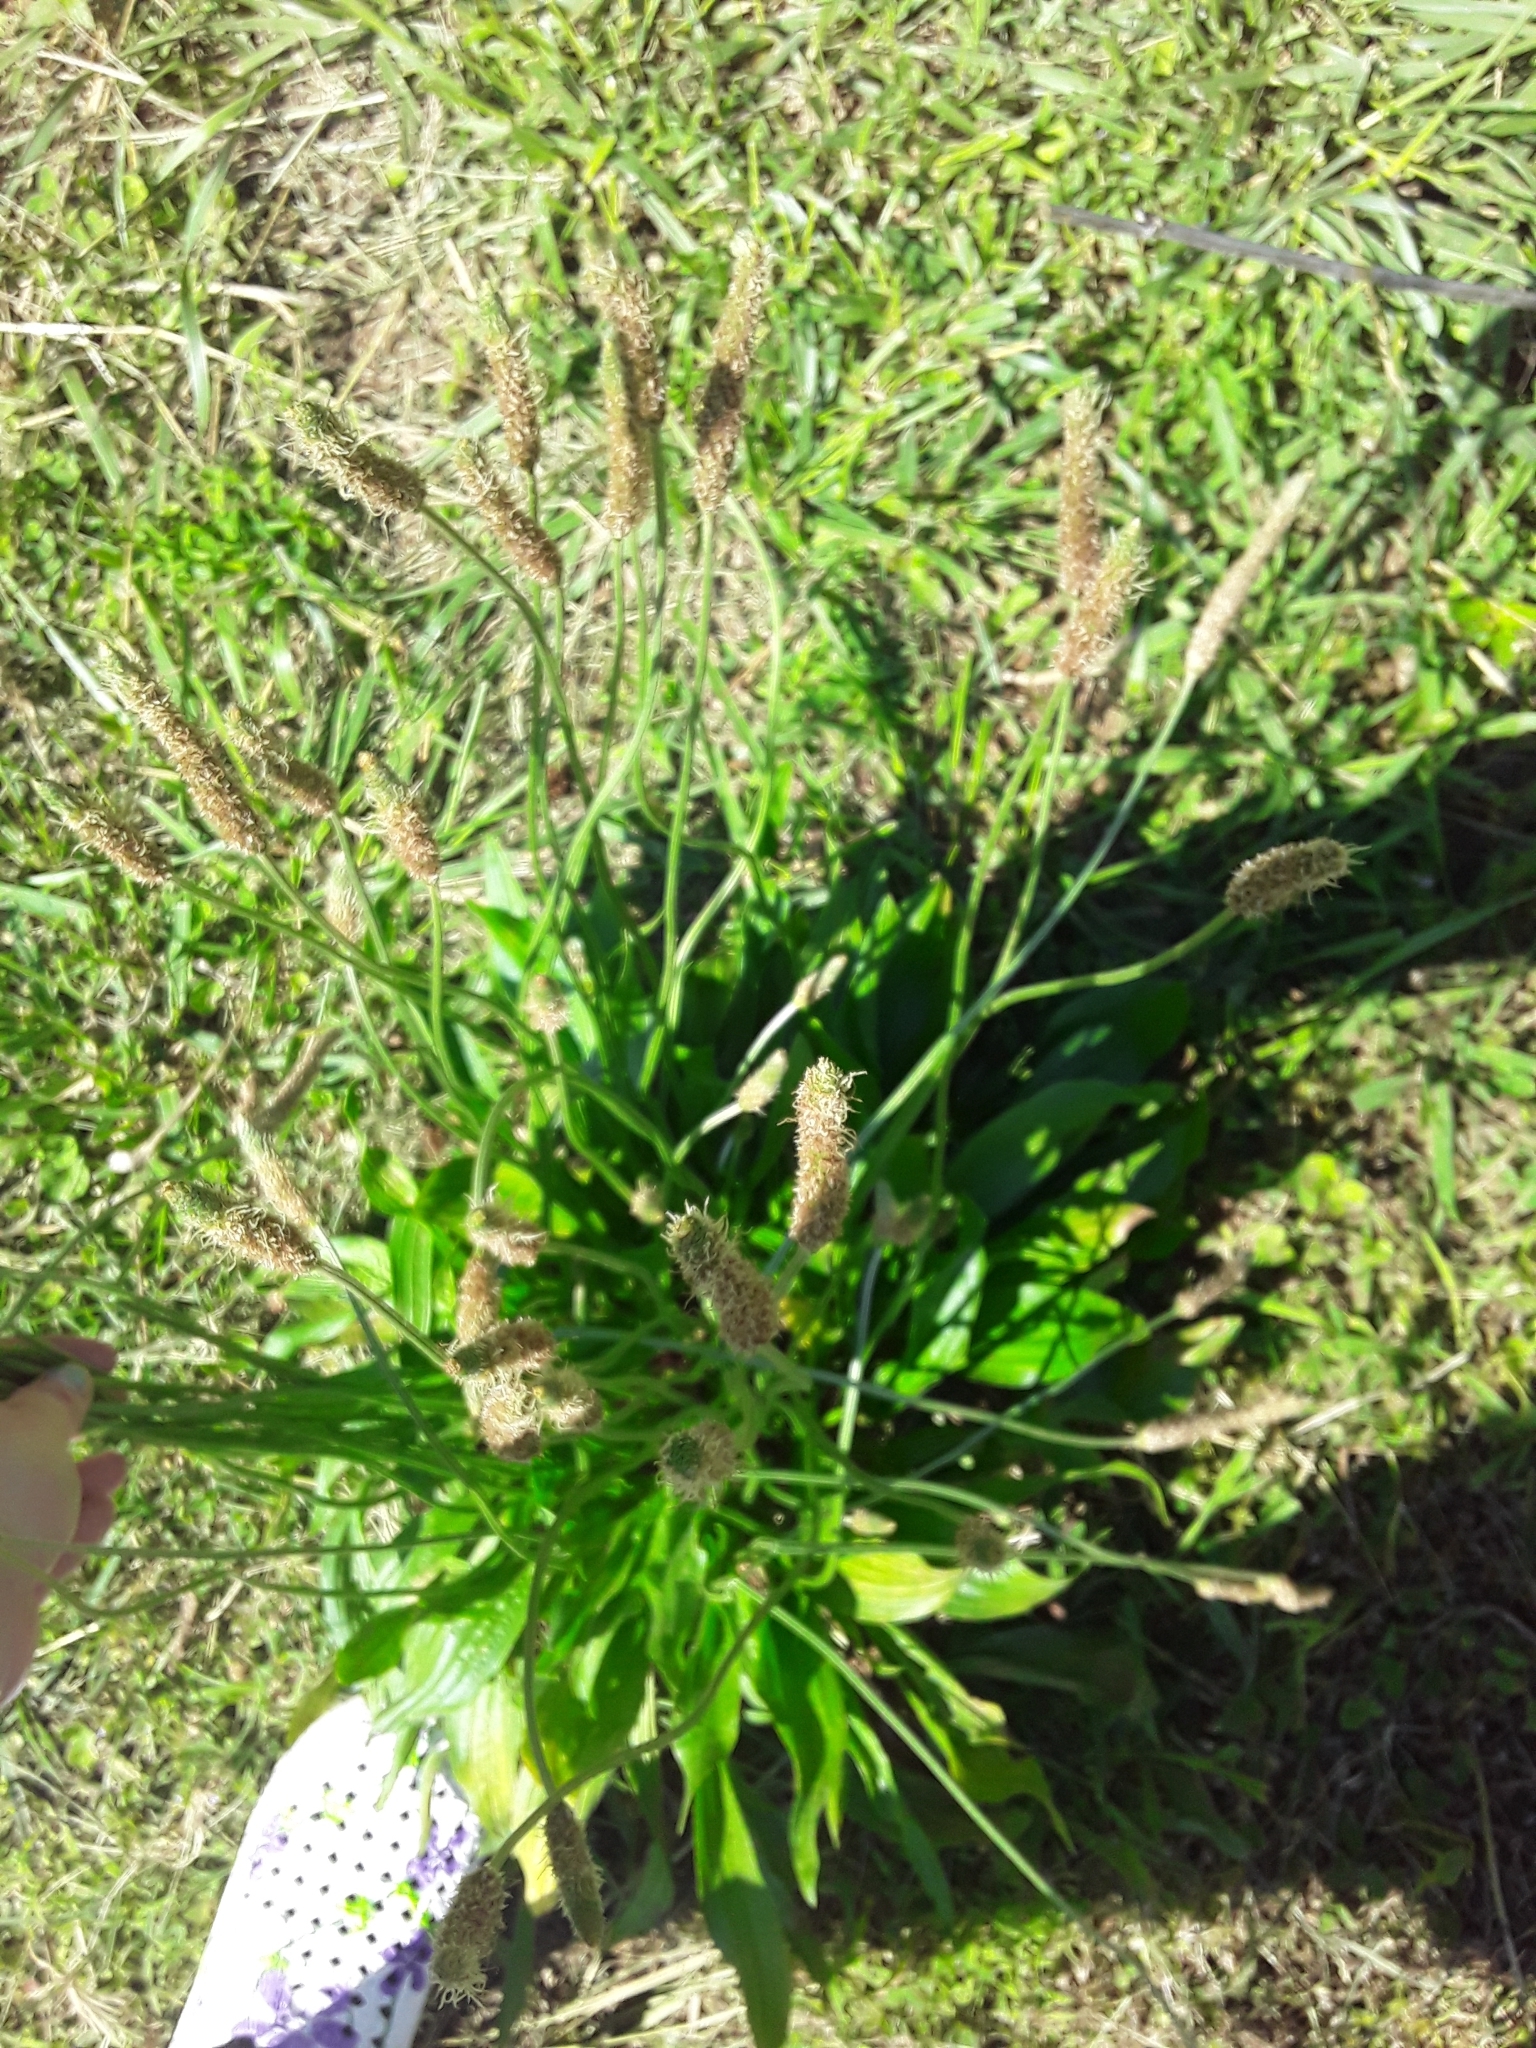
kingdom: Plantae
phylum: Tracheophyta
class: Magnoliopsida
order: Lamiales
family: Plantaginaceae
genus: Plantago
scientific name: Plantago lanceolata
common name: Ribwort plantain
